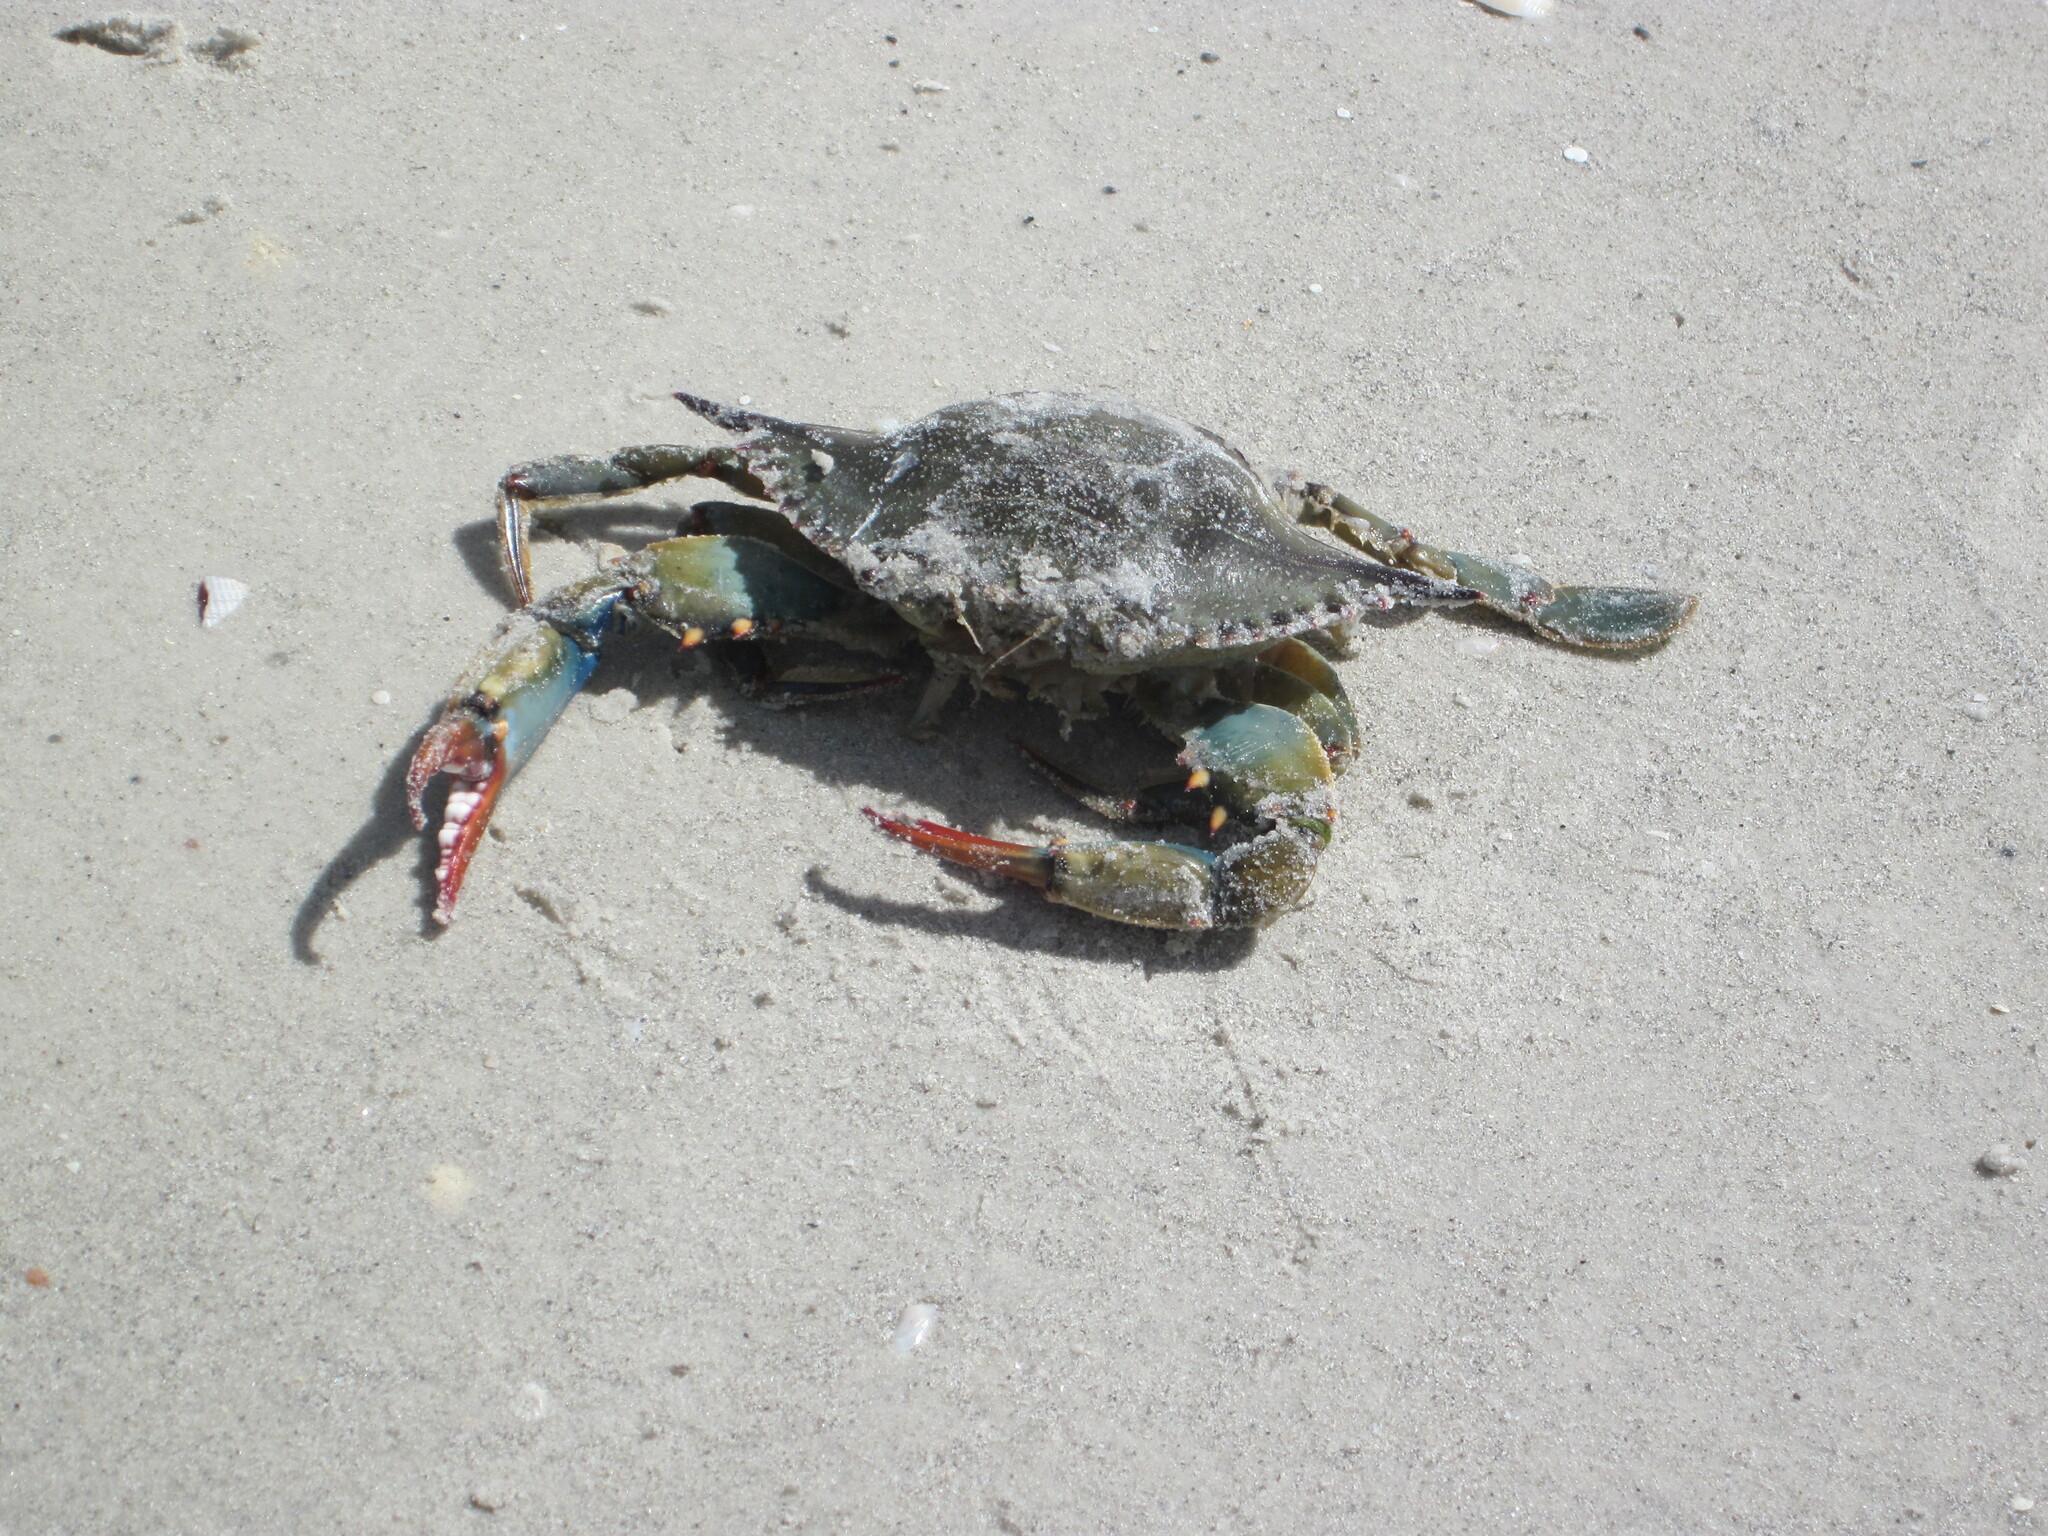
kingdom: Animalia
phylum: Arthropoda
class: Malacostraca
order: Decapoda
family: Portunidae
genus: Callinectes
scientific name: Callinectes sapidus
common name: Blue crab
